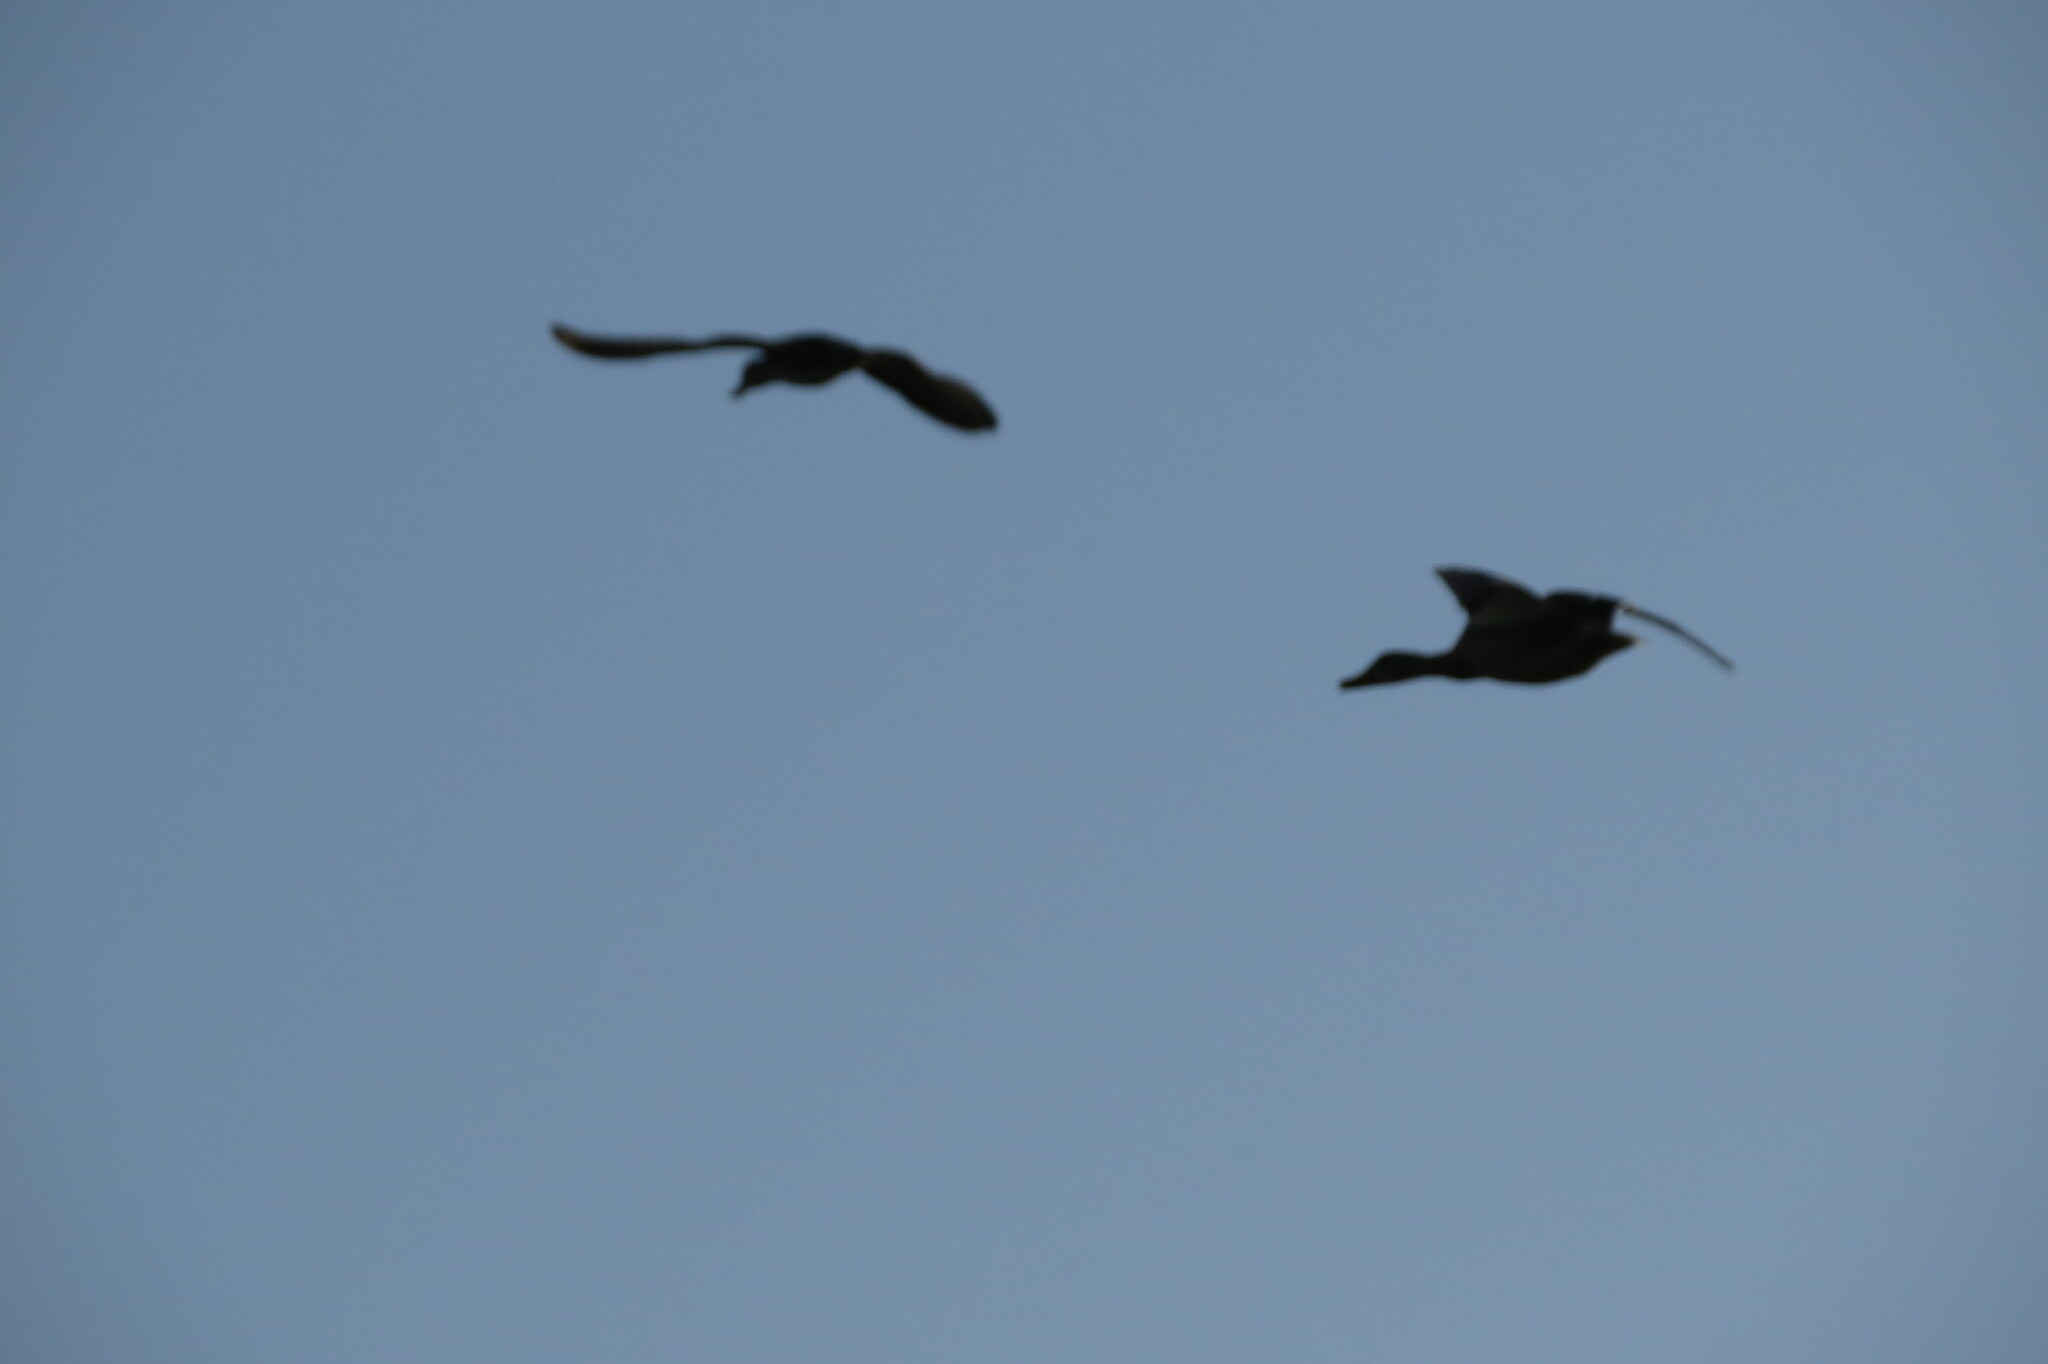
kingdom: Animalia
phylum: Chordata
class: Aves
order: Anseriformes
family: Anatidae
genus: Anas
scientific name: Anas platyrhynchos
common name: Mallard
